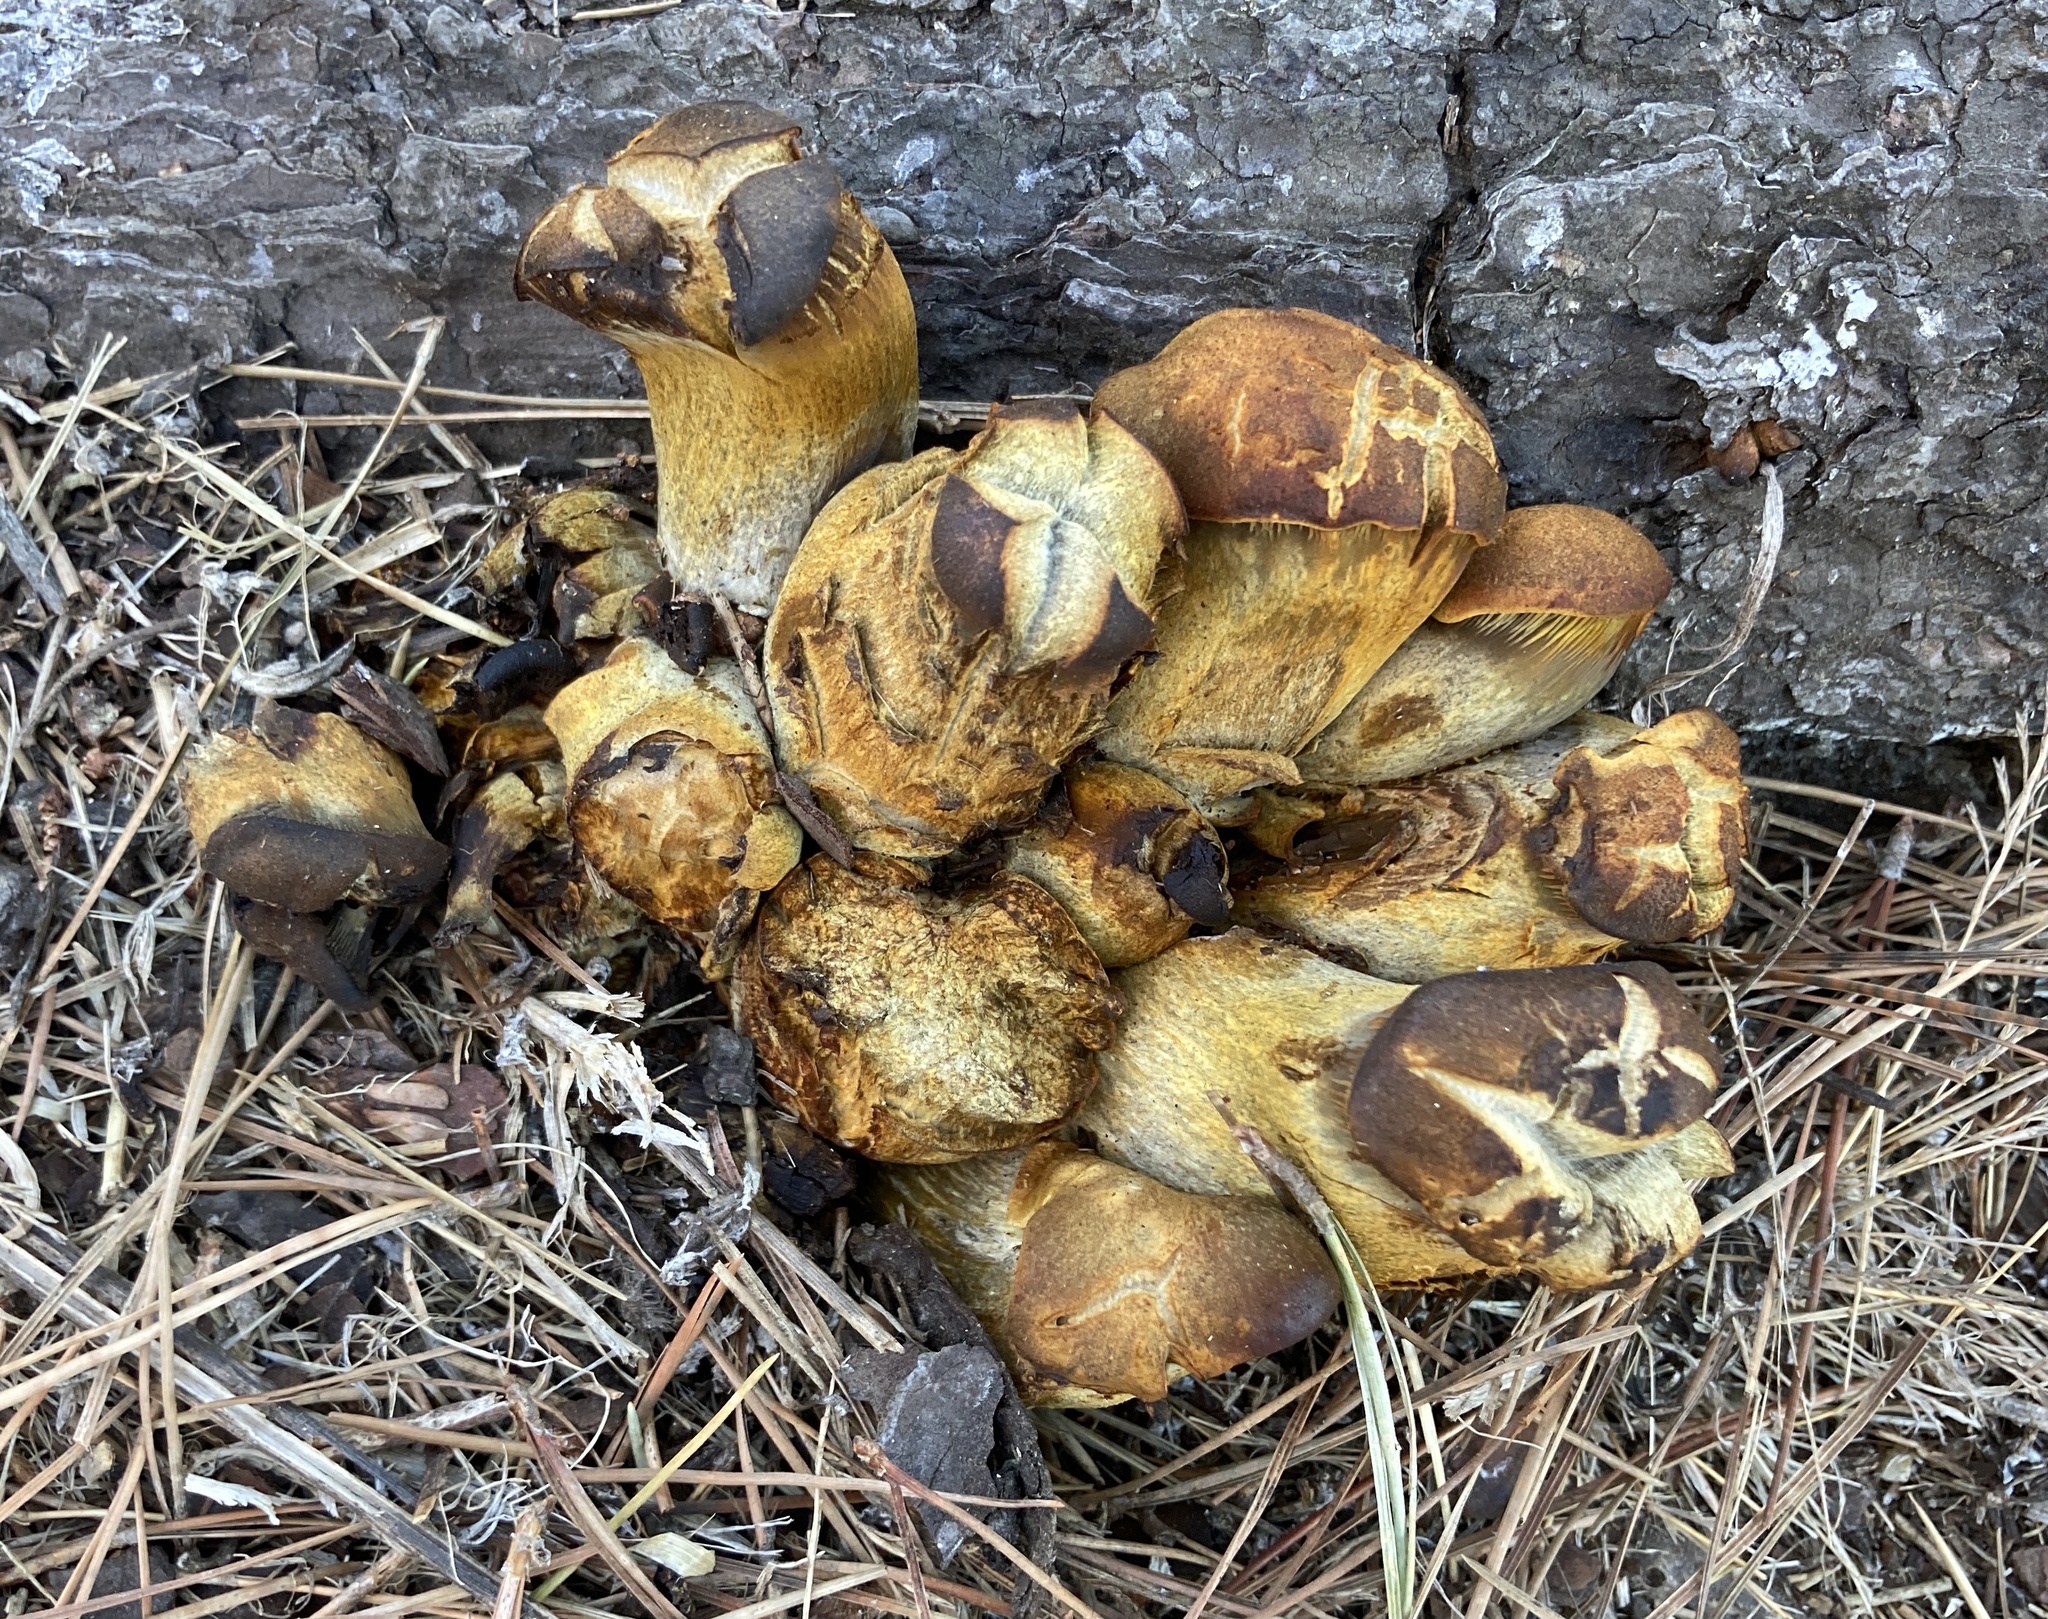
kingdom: Fungi
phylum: Basidiomycota
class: Agaricomycetes
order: Agaricales
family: Omphalotaceae
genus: Omphalotus
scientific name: Omphalotus olivascens
